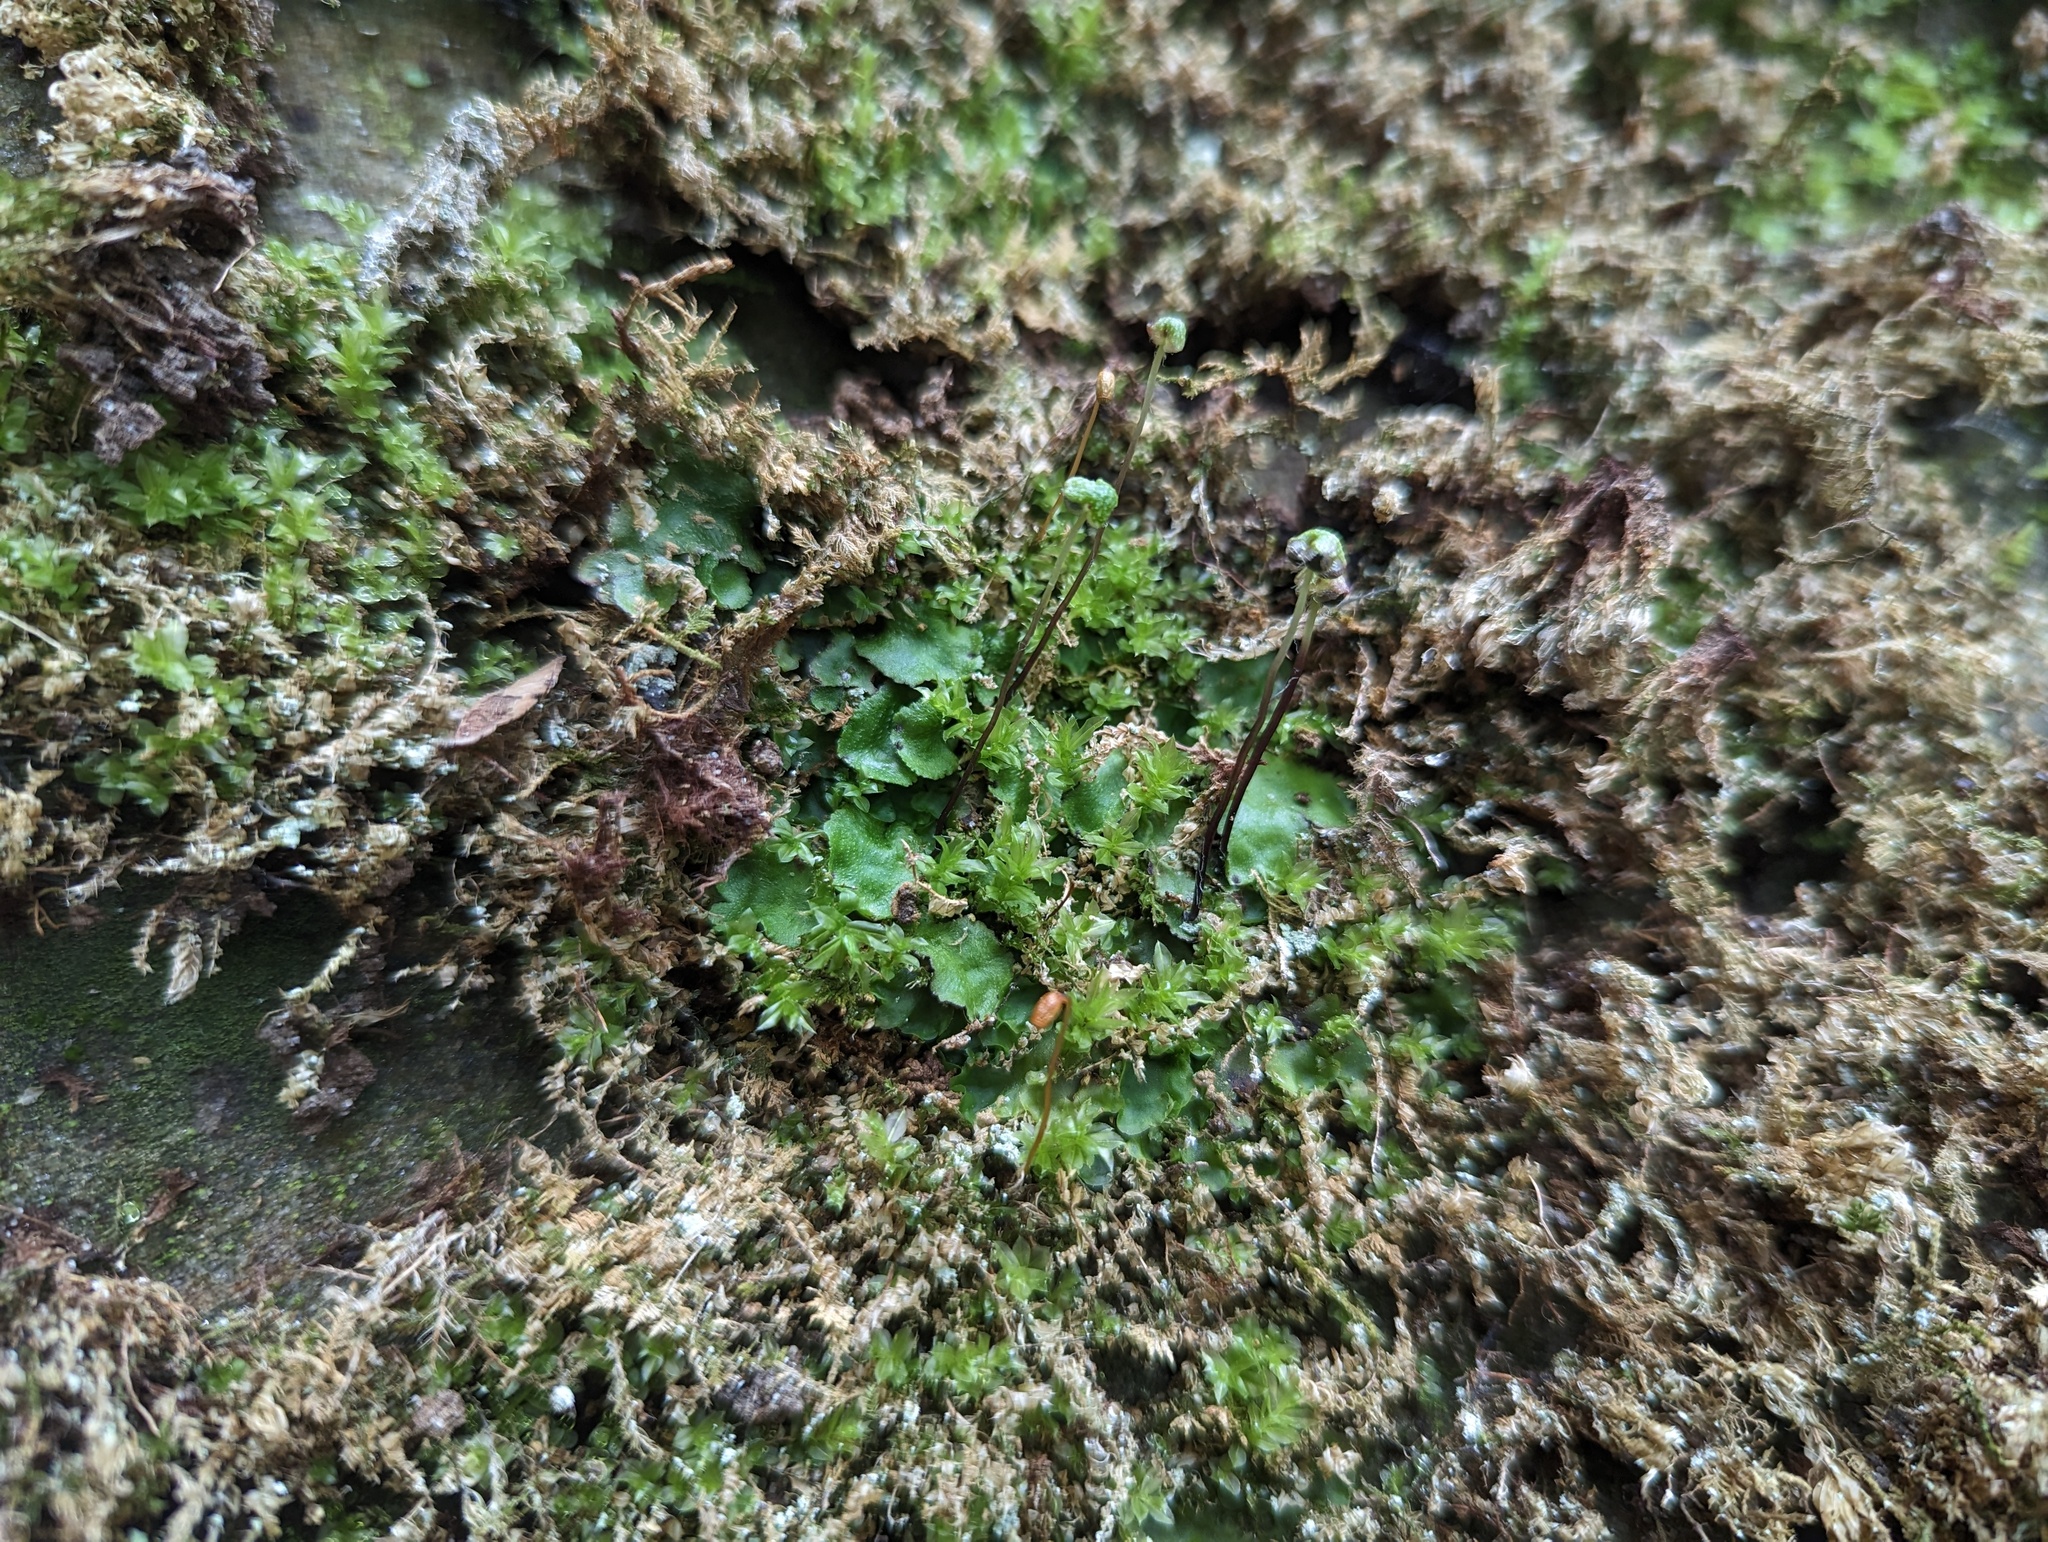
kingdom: Plantae
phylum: Marchantiophyta
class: Marchantiopsida
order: Marchantiales
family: Aytoniaceae
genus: Reboulia
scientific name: Reboulia hemisphaerica
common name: Purple-margined liverwort
